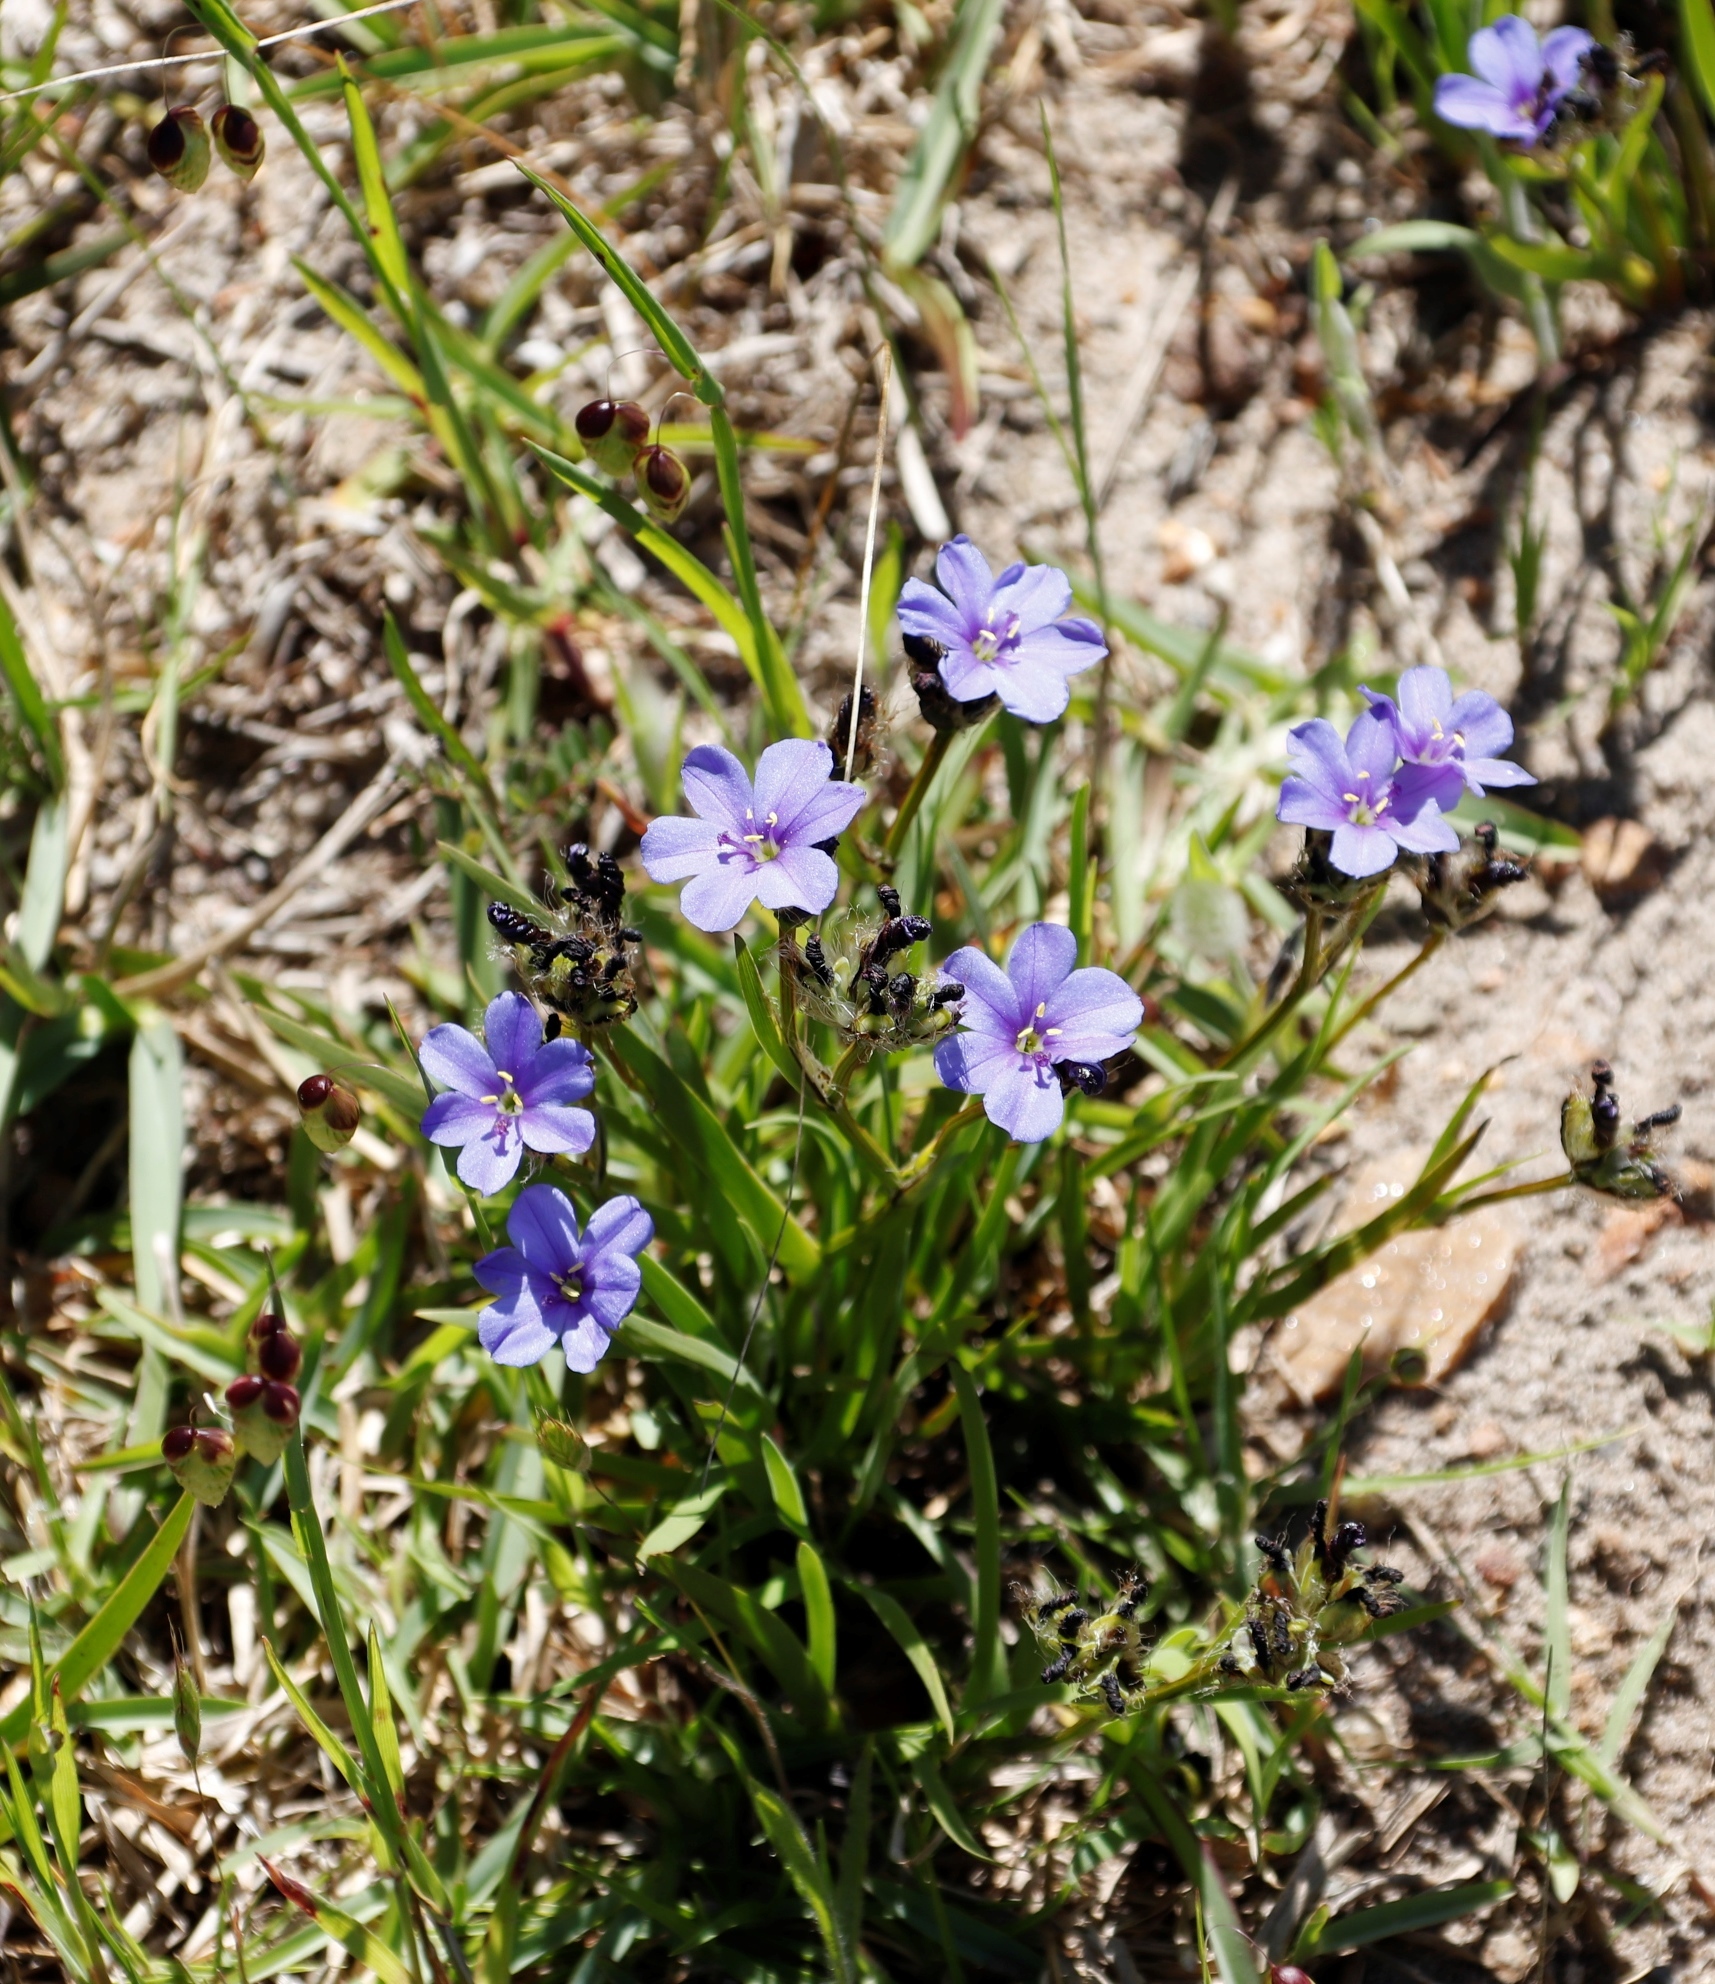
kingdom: Plantae
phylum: Tracheophyta
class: Liliopsida
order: Asparagales
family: Iridaceae
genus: Aristea
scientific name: Aristea africana
